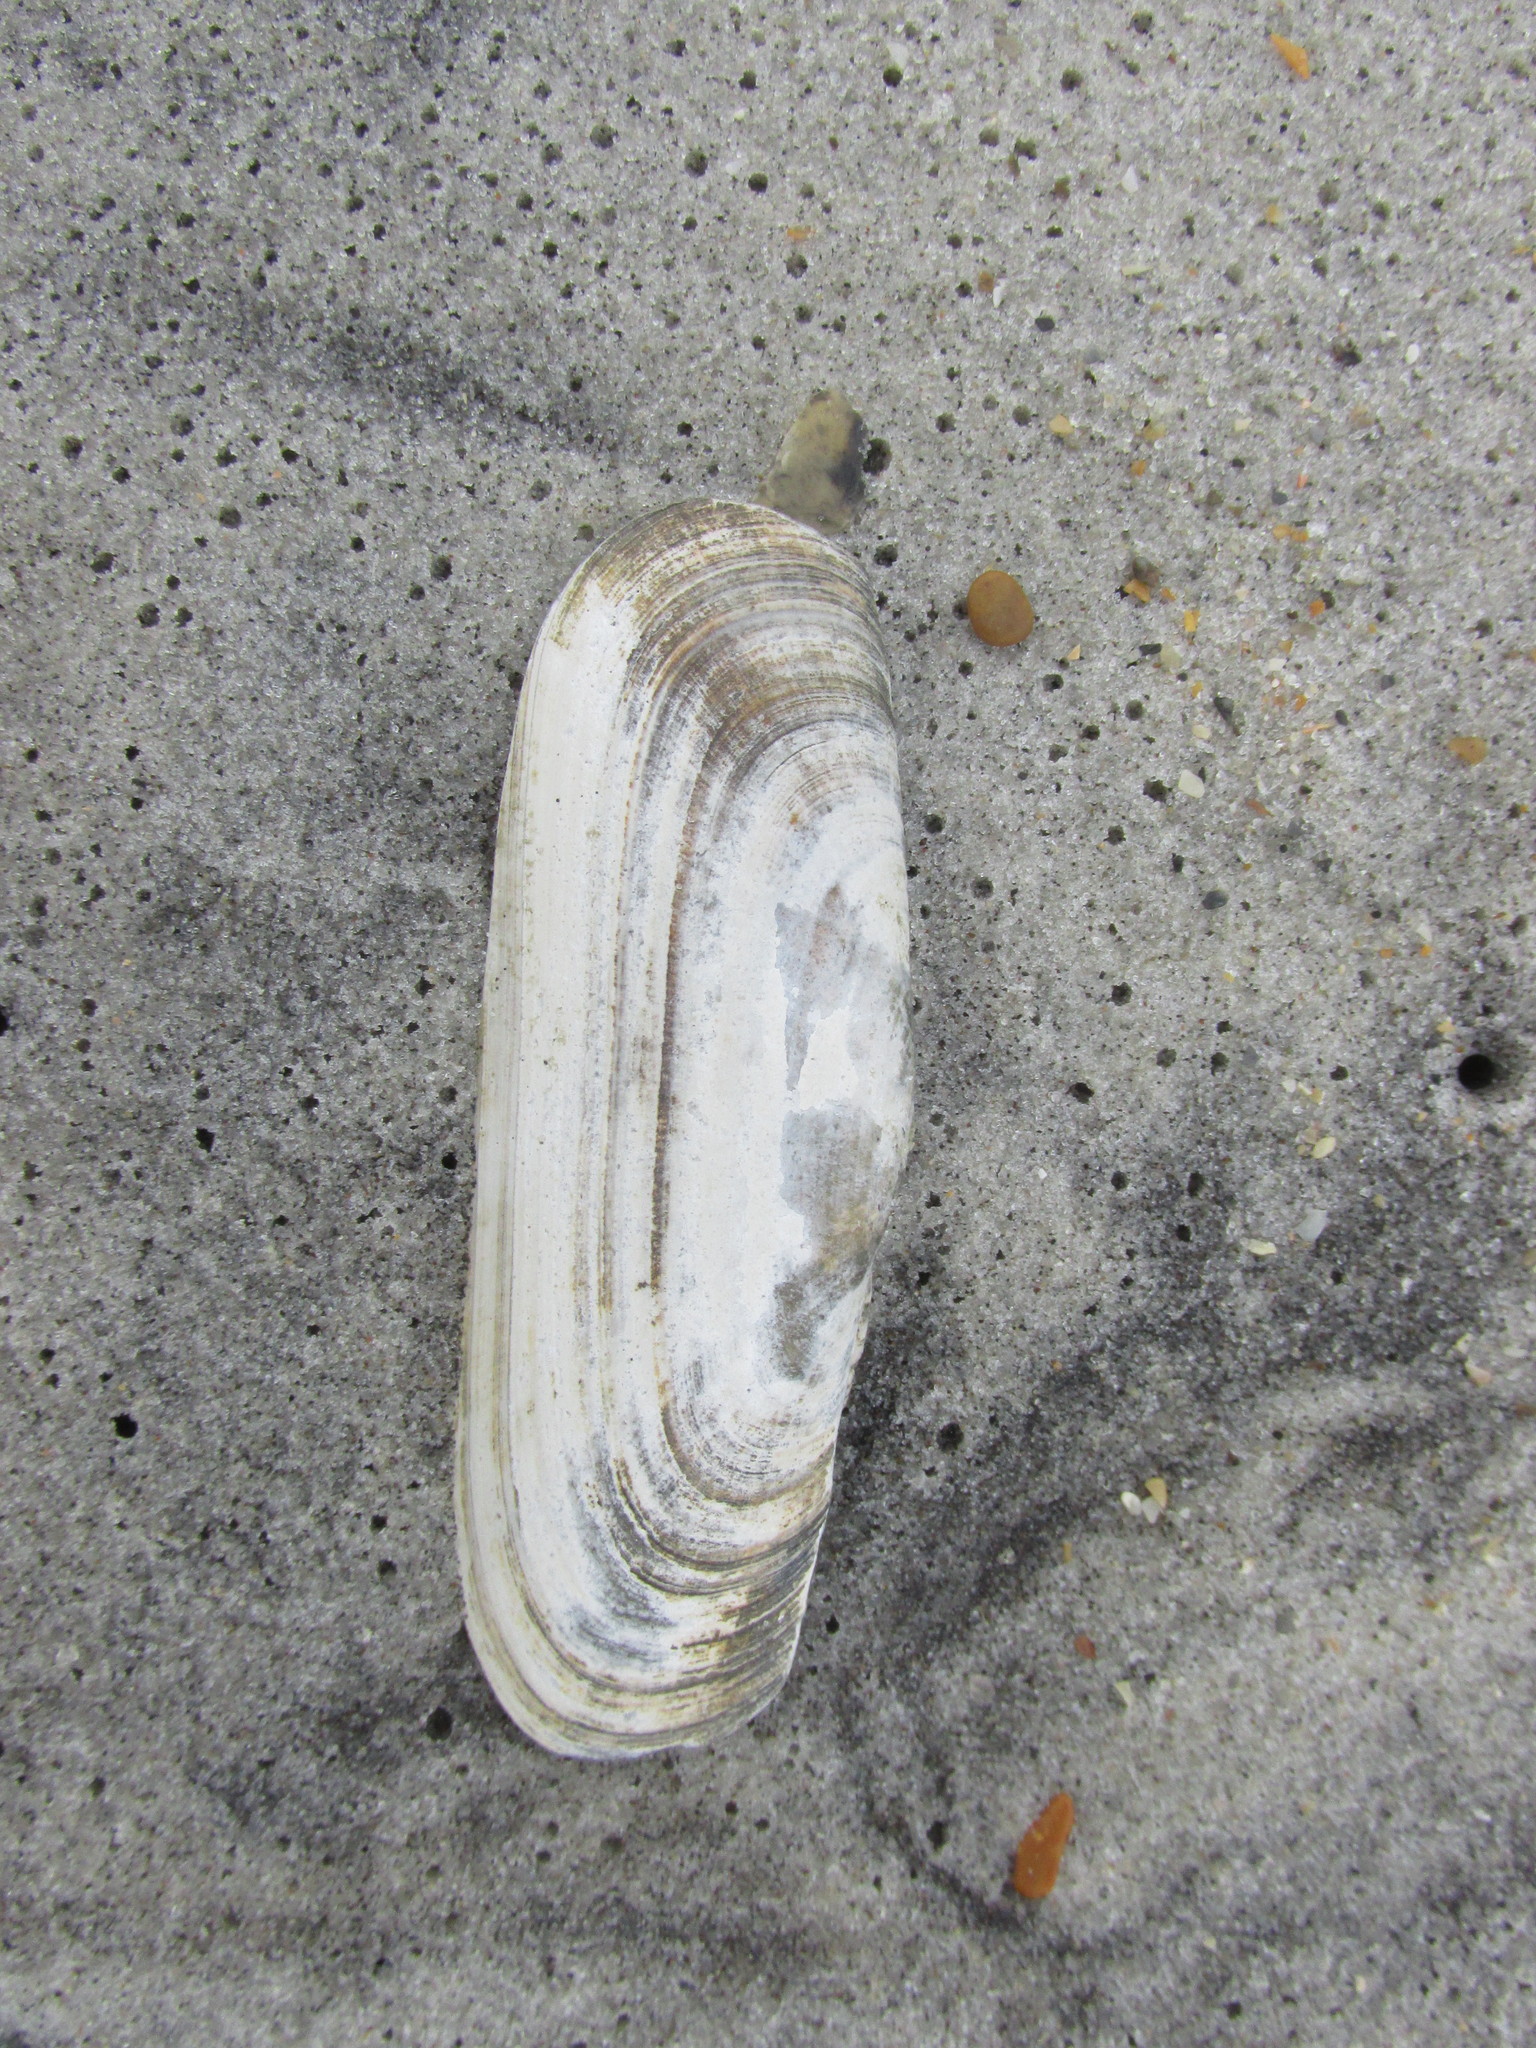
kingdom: Animalia
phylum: Mollusca
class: Bivalvia
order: Cardiida
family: Solecurtidae
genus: Tagelus
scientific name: Tagelus plebeius
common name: Stout tagelus
